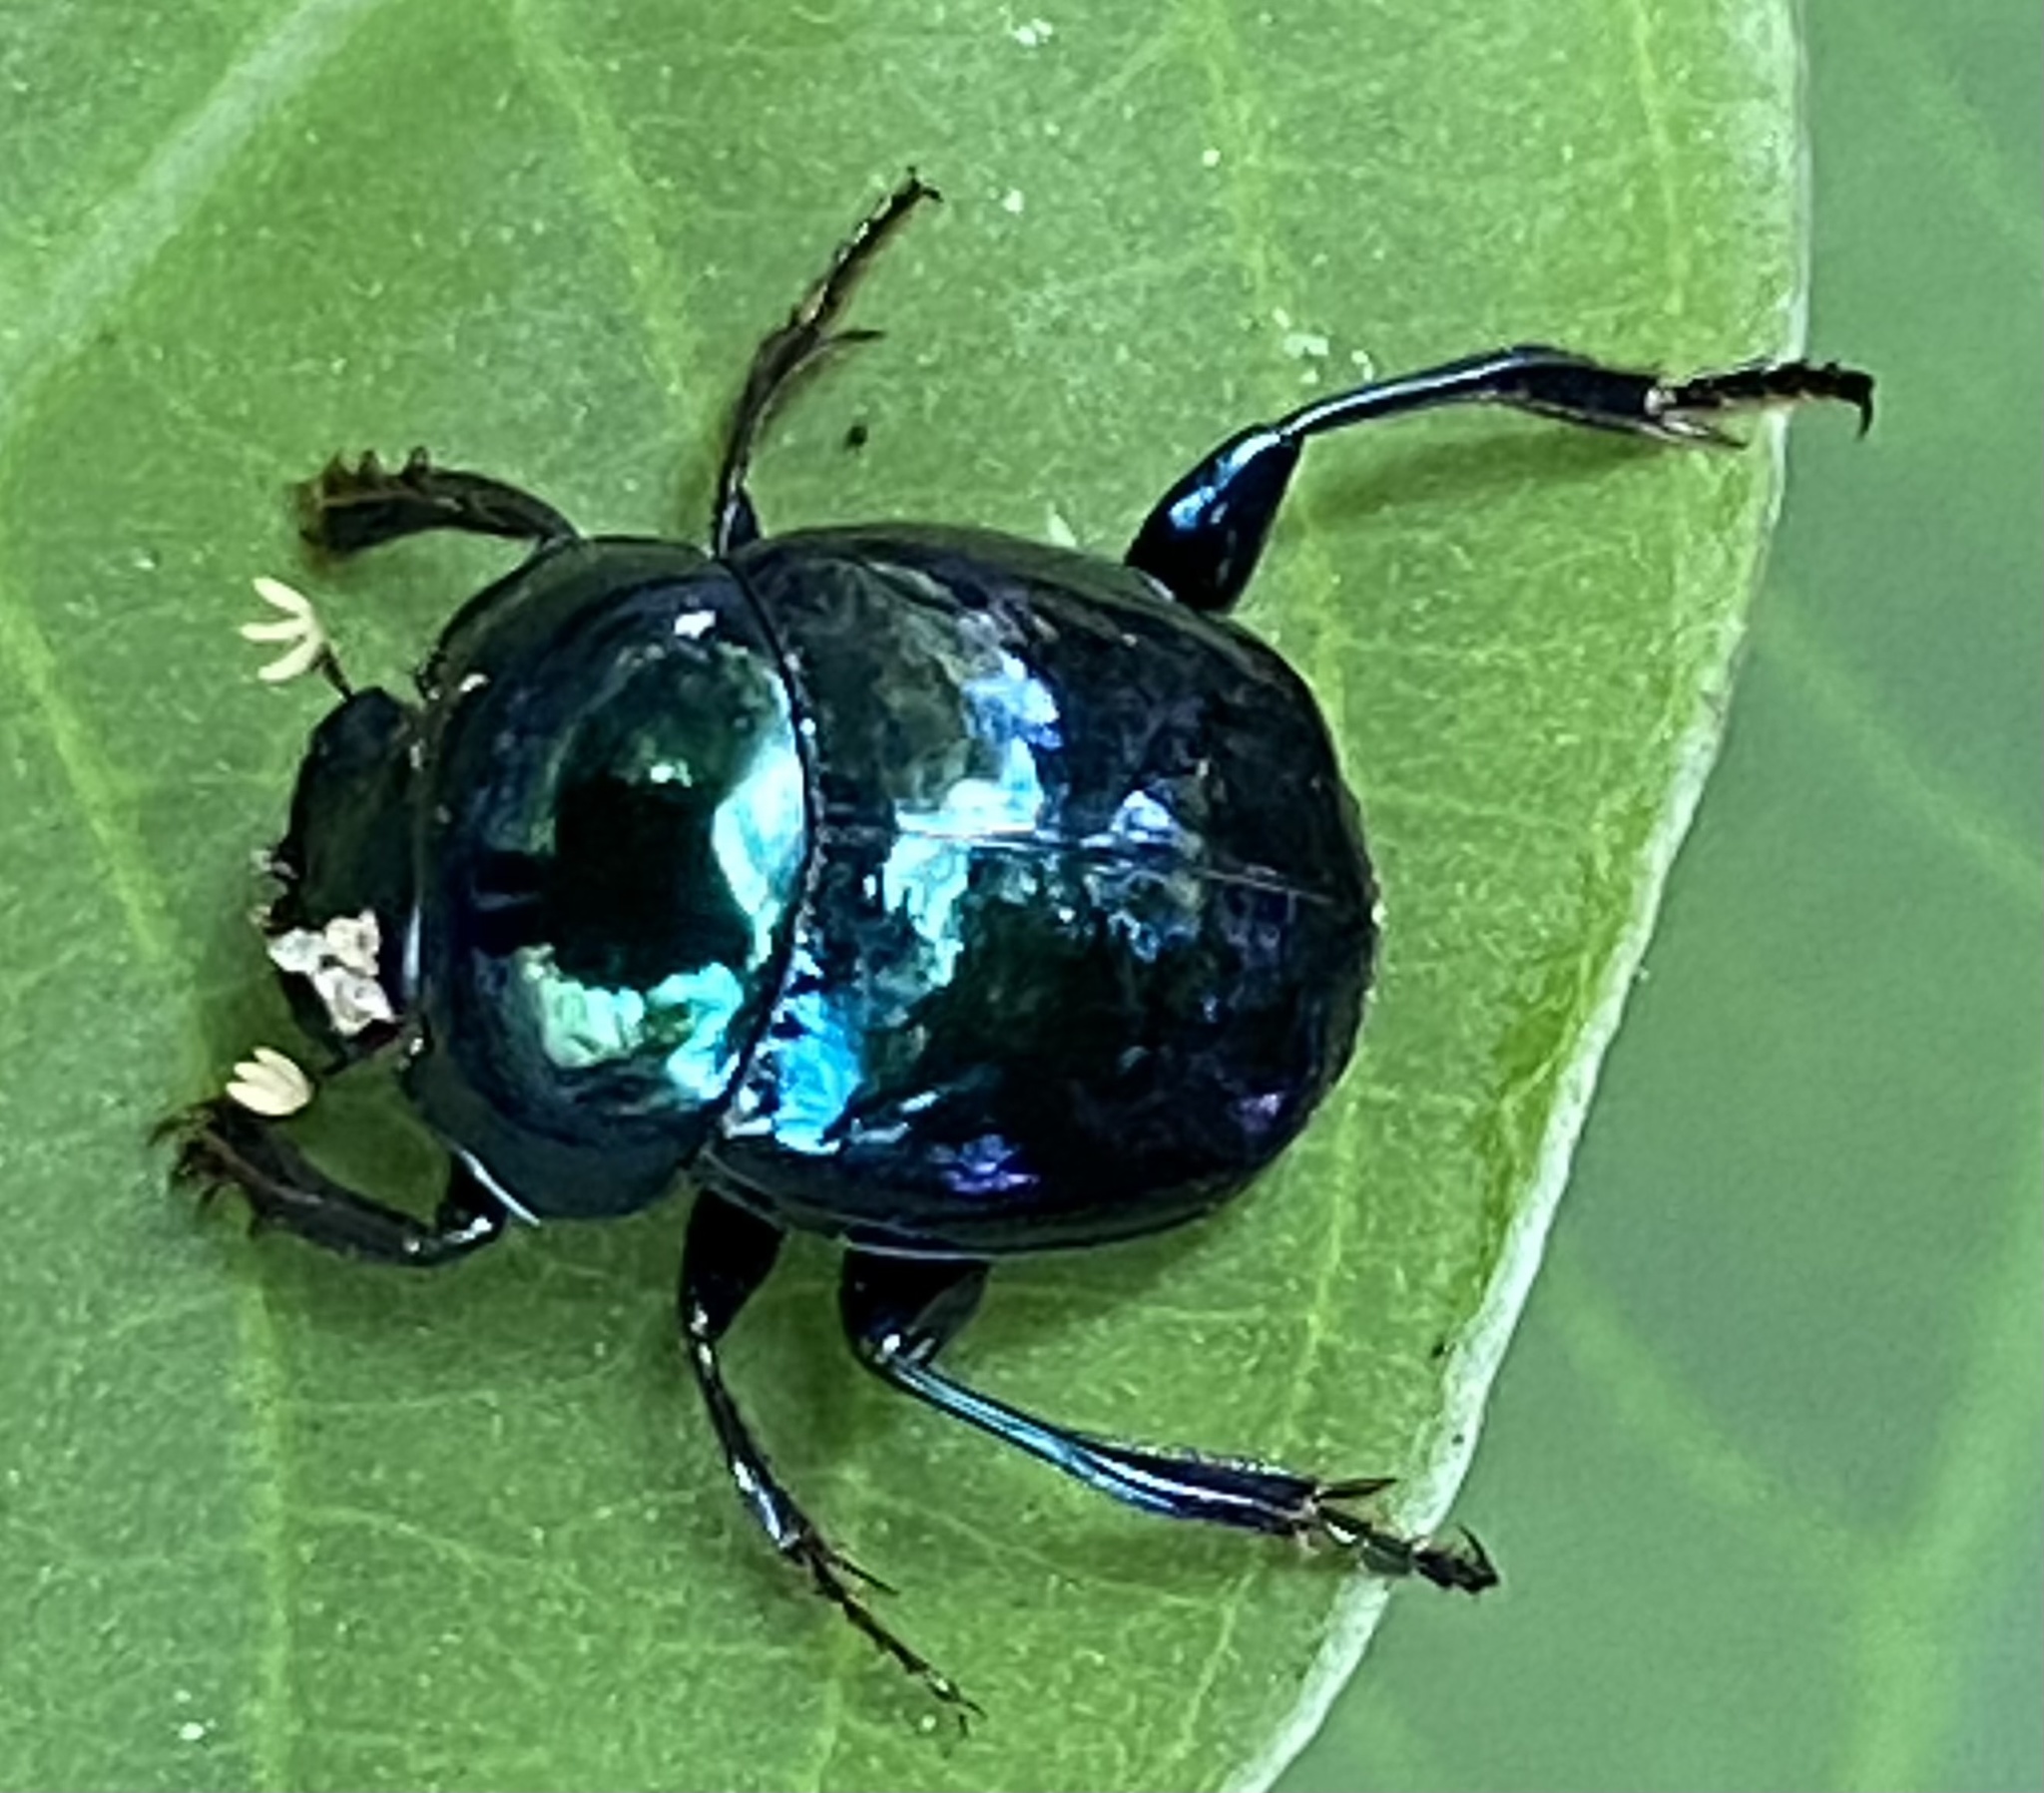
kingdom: Animalia
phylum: Arthropoda
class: Insecta
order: Coleoptera
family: Scarabaeidae
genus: Canthon
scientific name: Canthon smaragdulus
